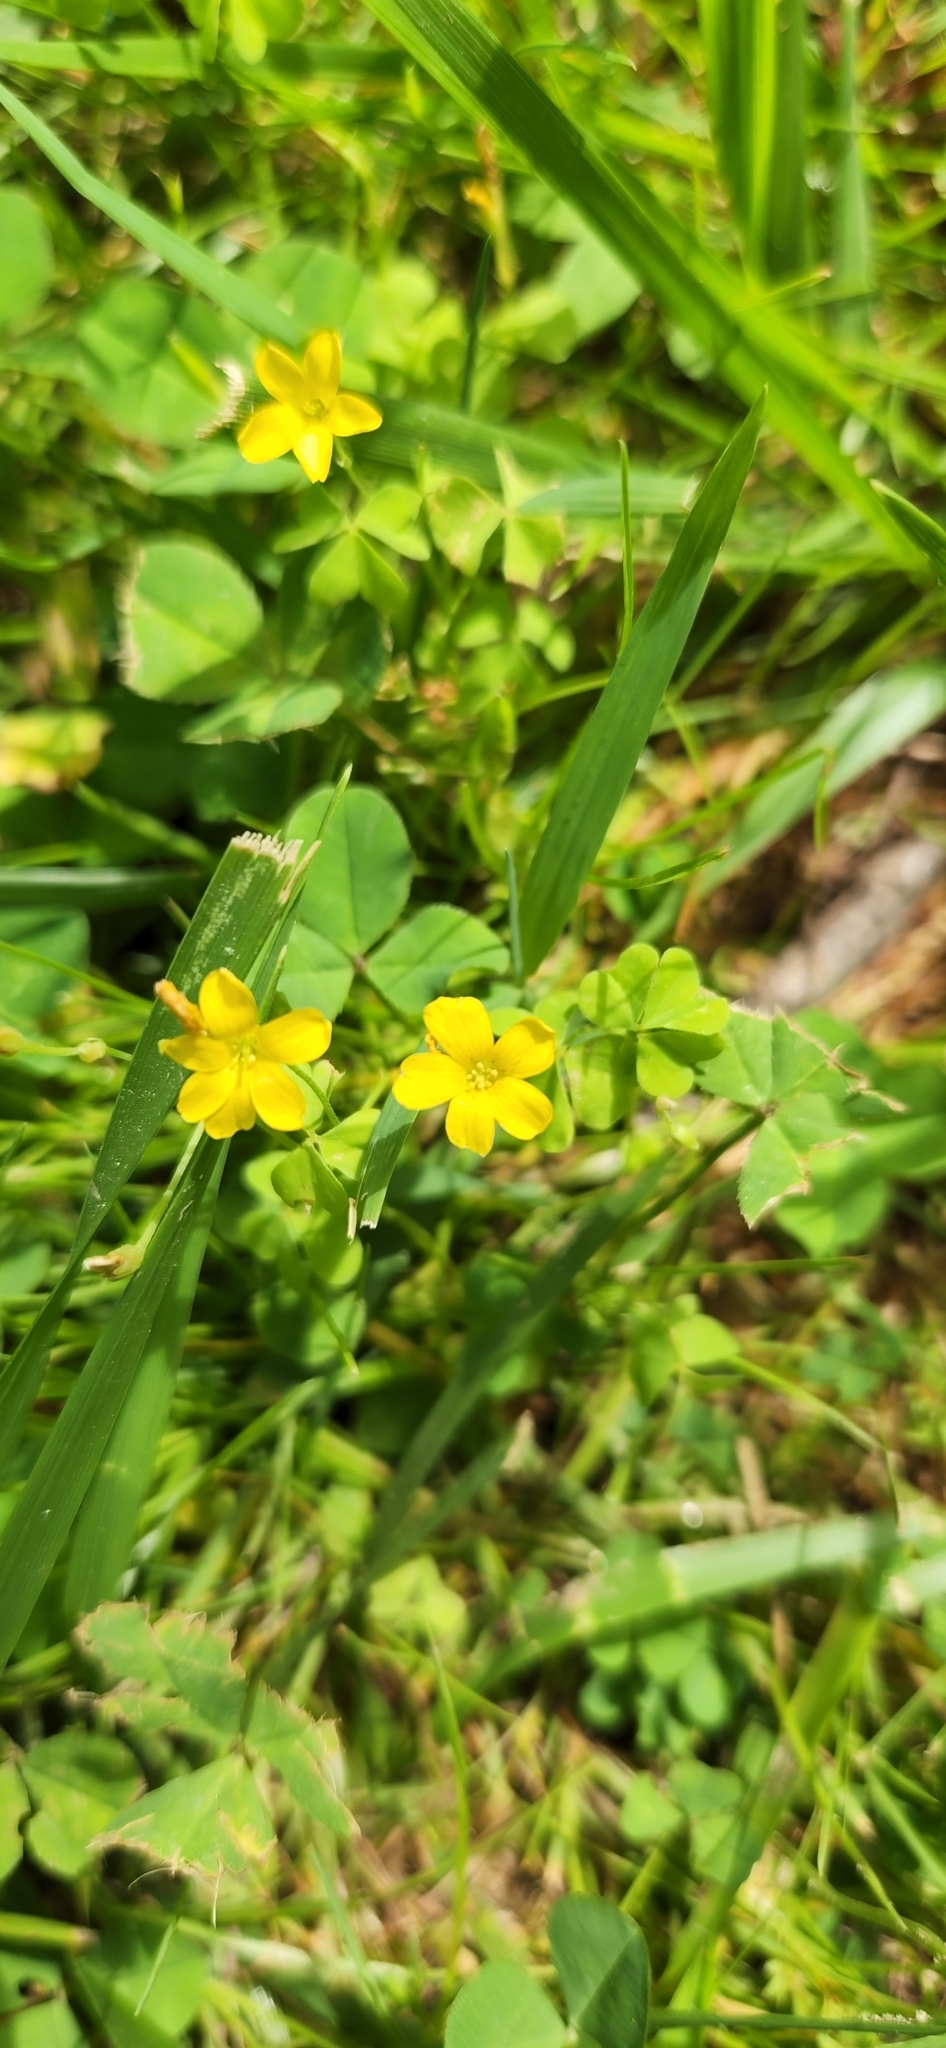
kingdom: Plantae
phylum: Tracheophyta
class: Magnoliopsida
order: Oxalidales
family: Oxalidaceae
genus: Oxalis
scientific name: Oxalis
